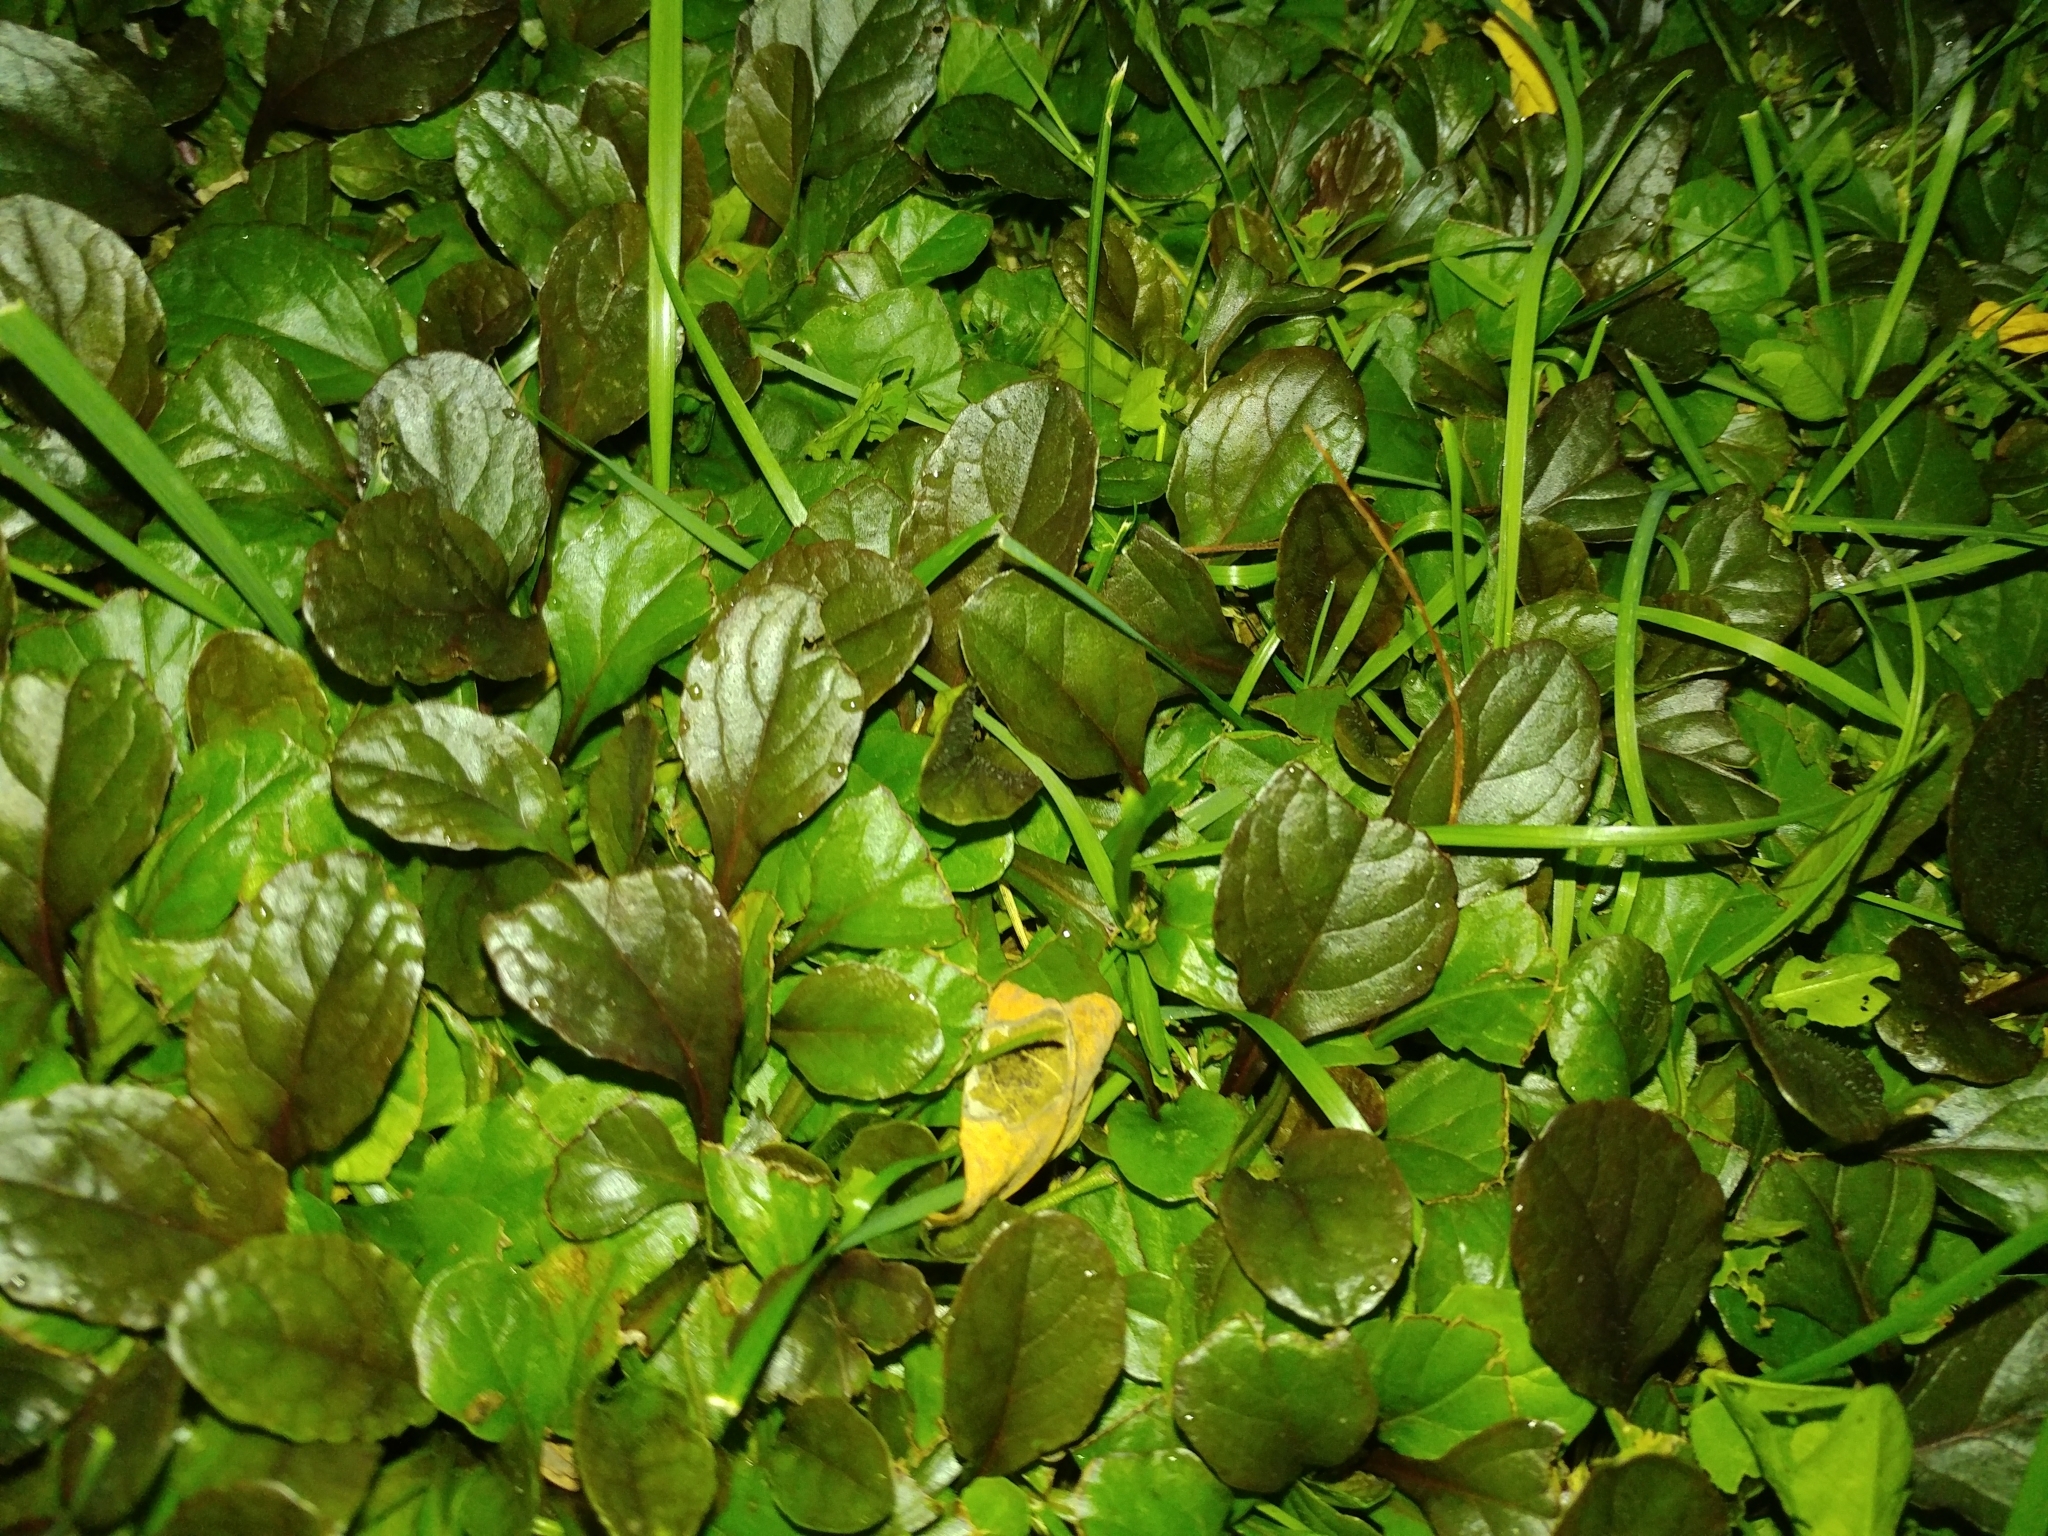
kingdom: Plantae
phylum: Tracheophyta
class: Magnoliopsida
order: Lamiales
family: Lamiaceae
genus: Ajuga
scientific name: Ajuga reptans
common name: Bugle
